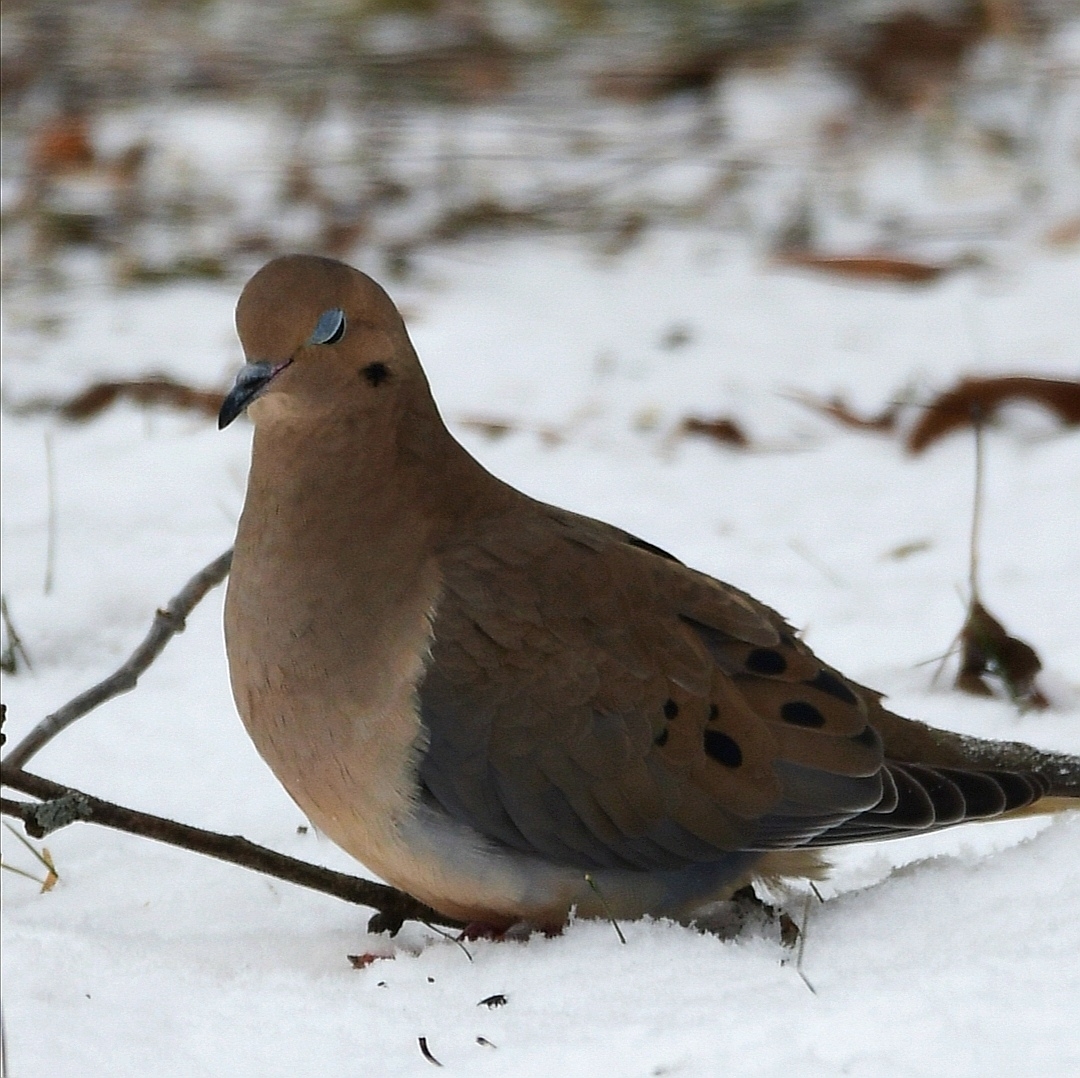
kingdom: Animalia
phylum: Chordata
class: Aves
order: Columbiformes
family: Columbidae
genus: Zenaida
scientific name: Zenaida macroura
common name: Mourning dove
